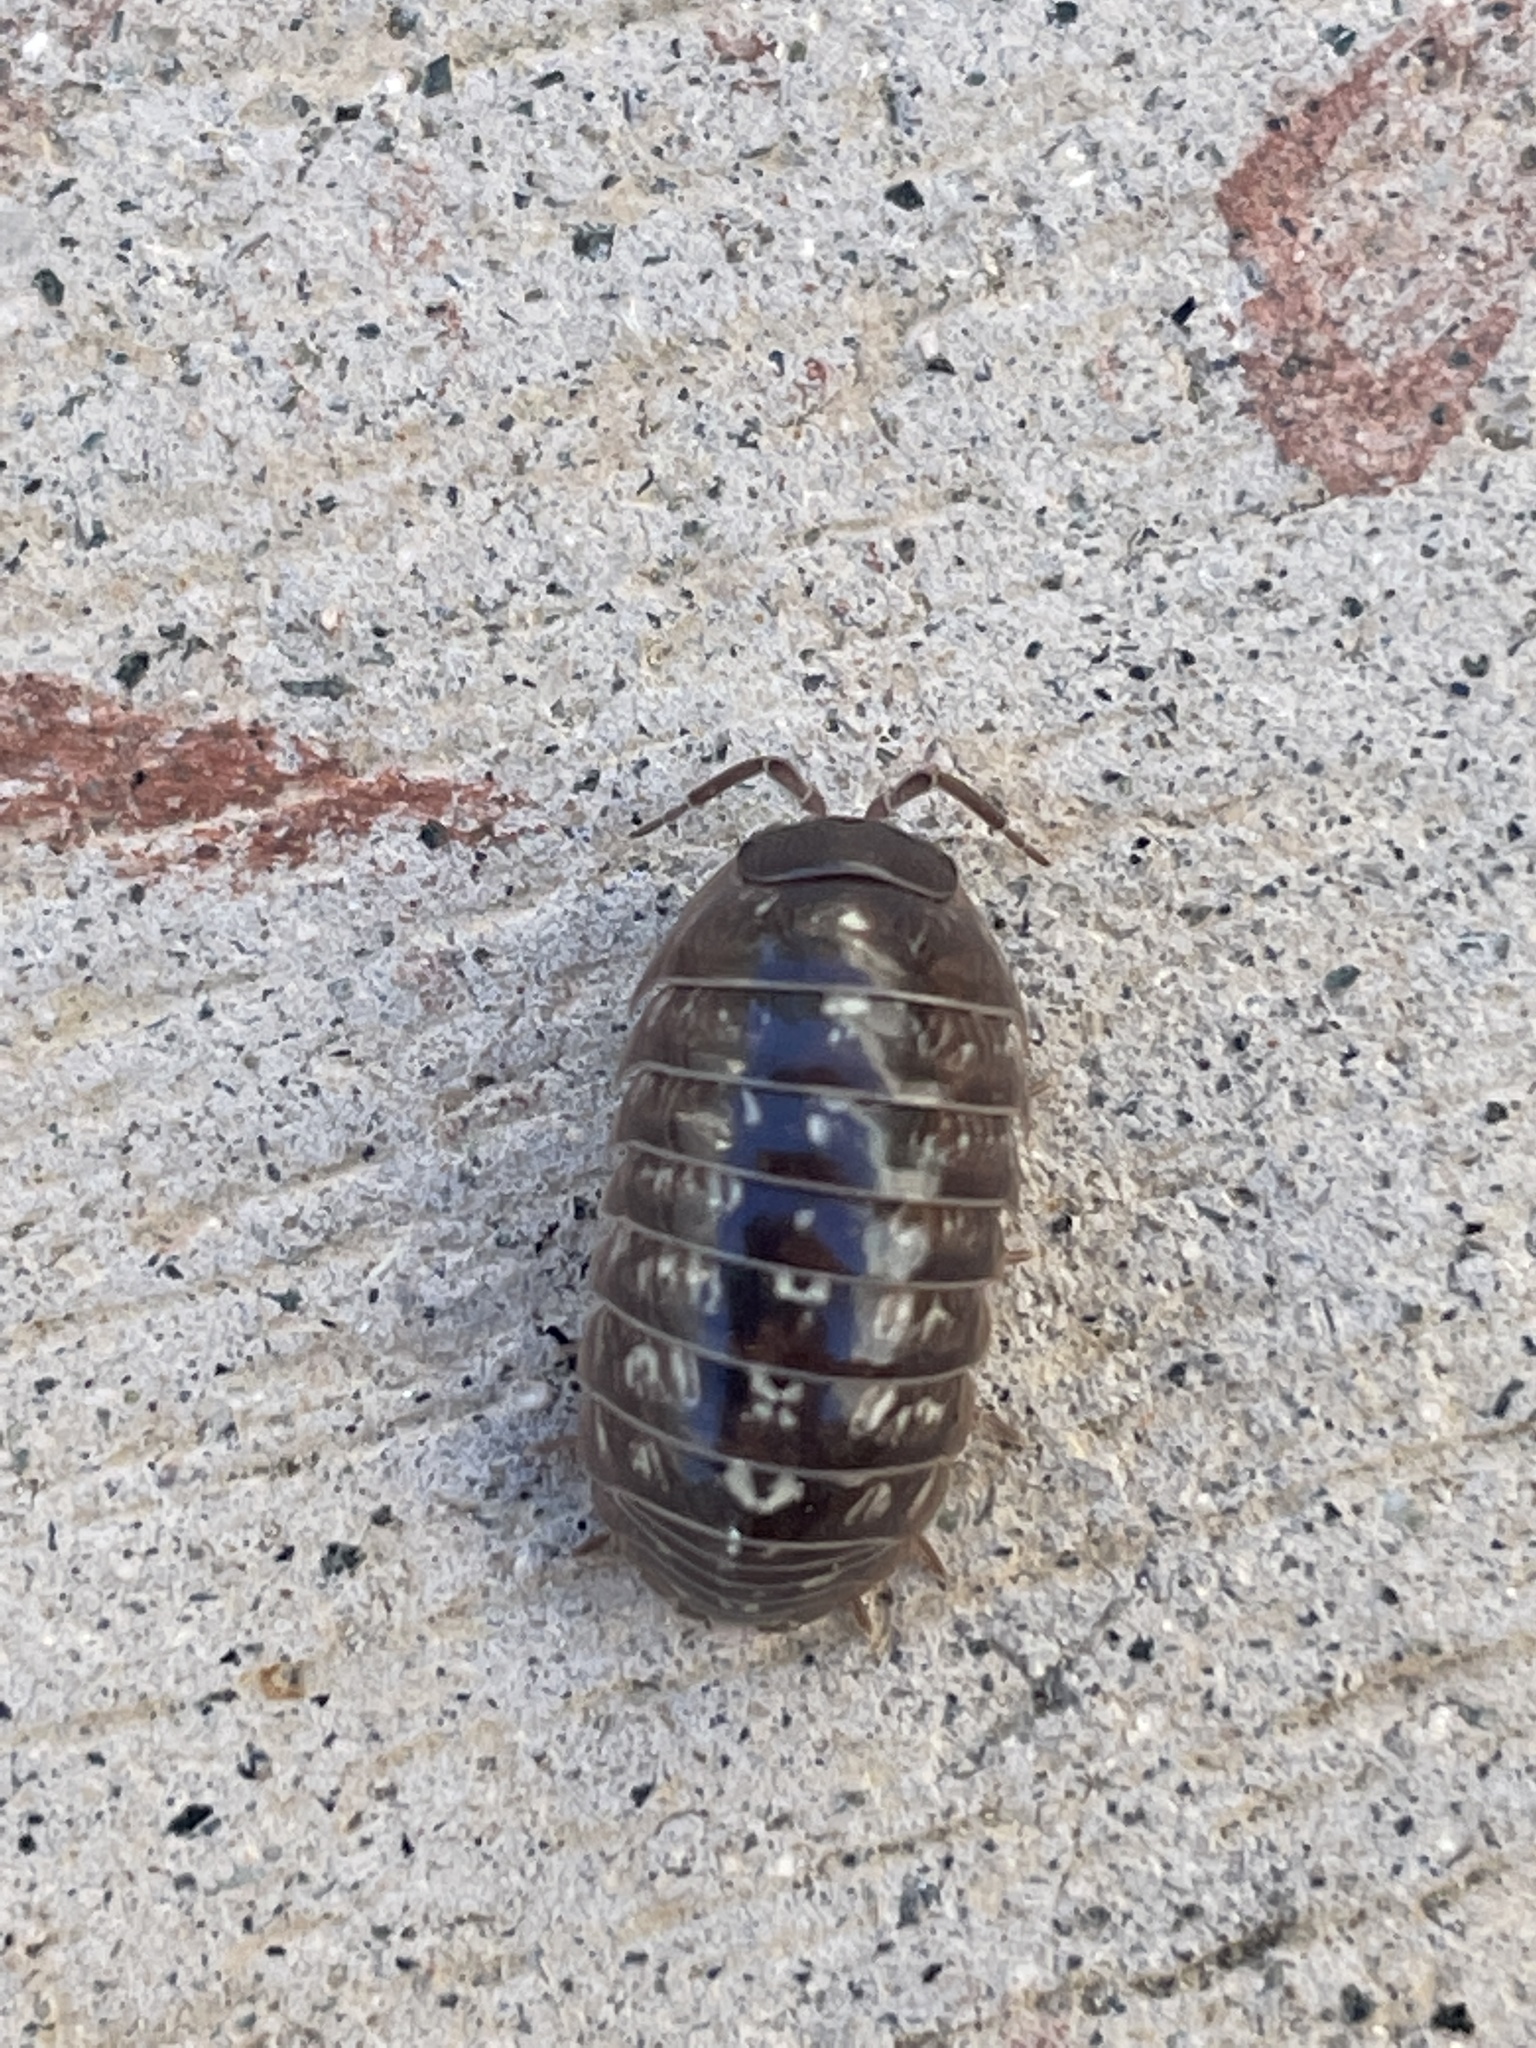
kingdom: Animalia
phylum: Arthropoda
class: Malacostraca
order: Isopoda
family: Armadillidiidae
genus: Armadillidium
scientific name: Armadillidium vulgare
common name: Common pill woodlouse
